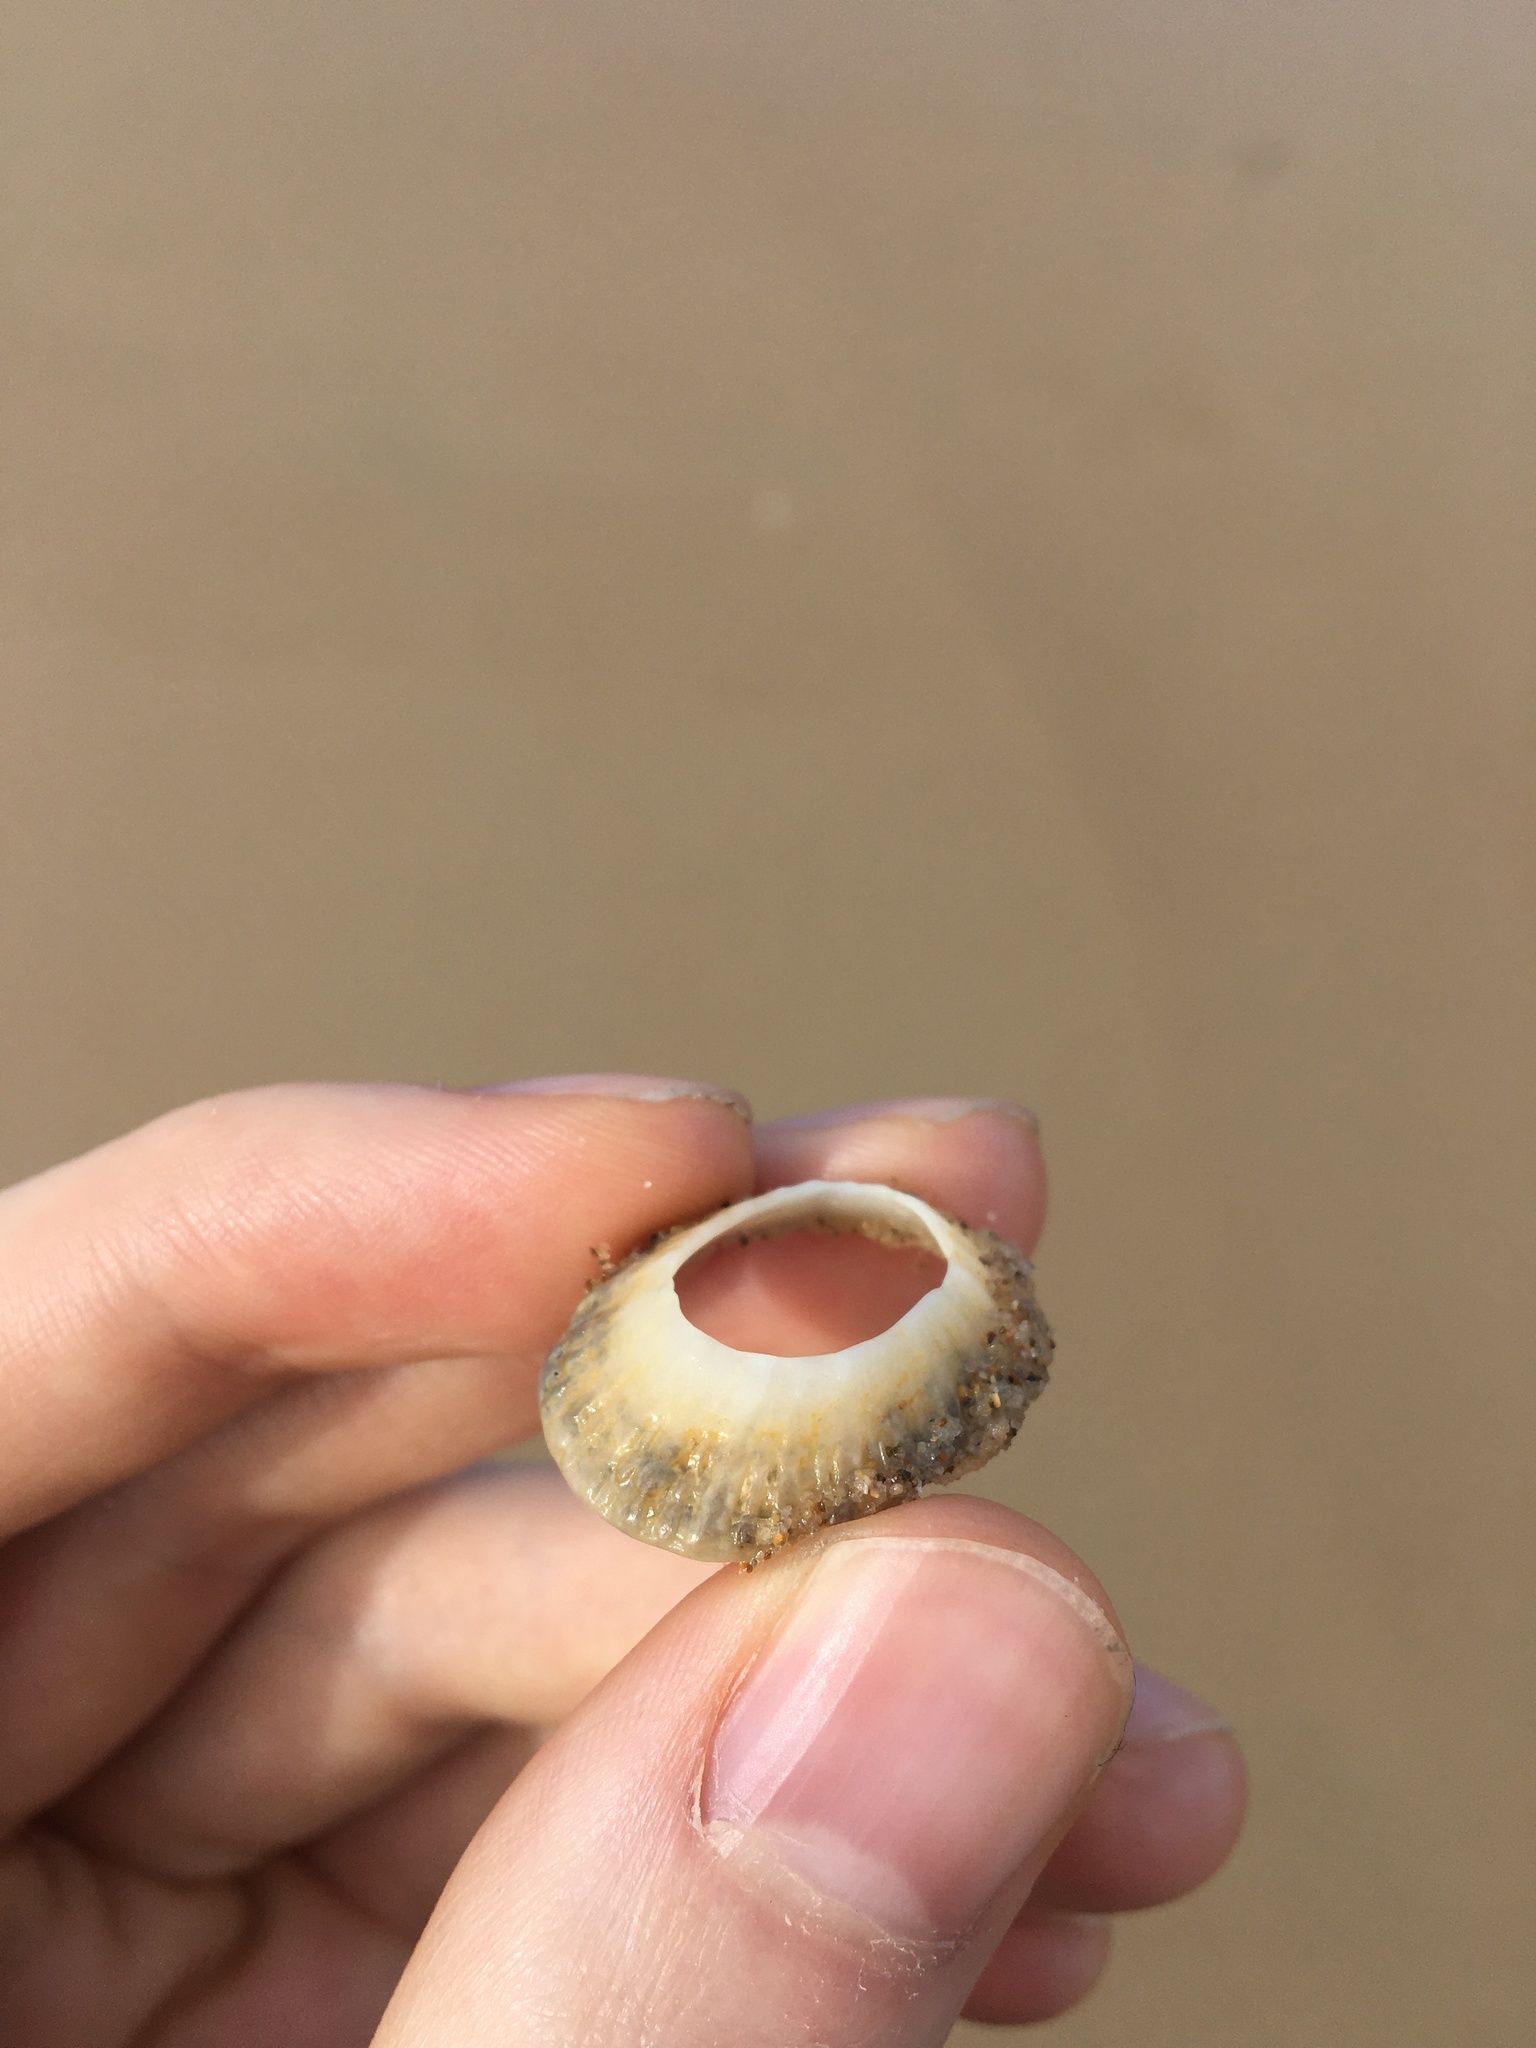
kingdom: Animalia
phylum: Mollusca
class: Gastropoda
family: Patellidae
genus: Scutellastra
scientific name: Scutellastra peronii
